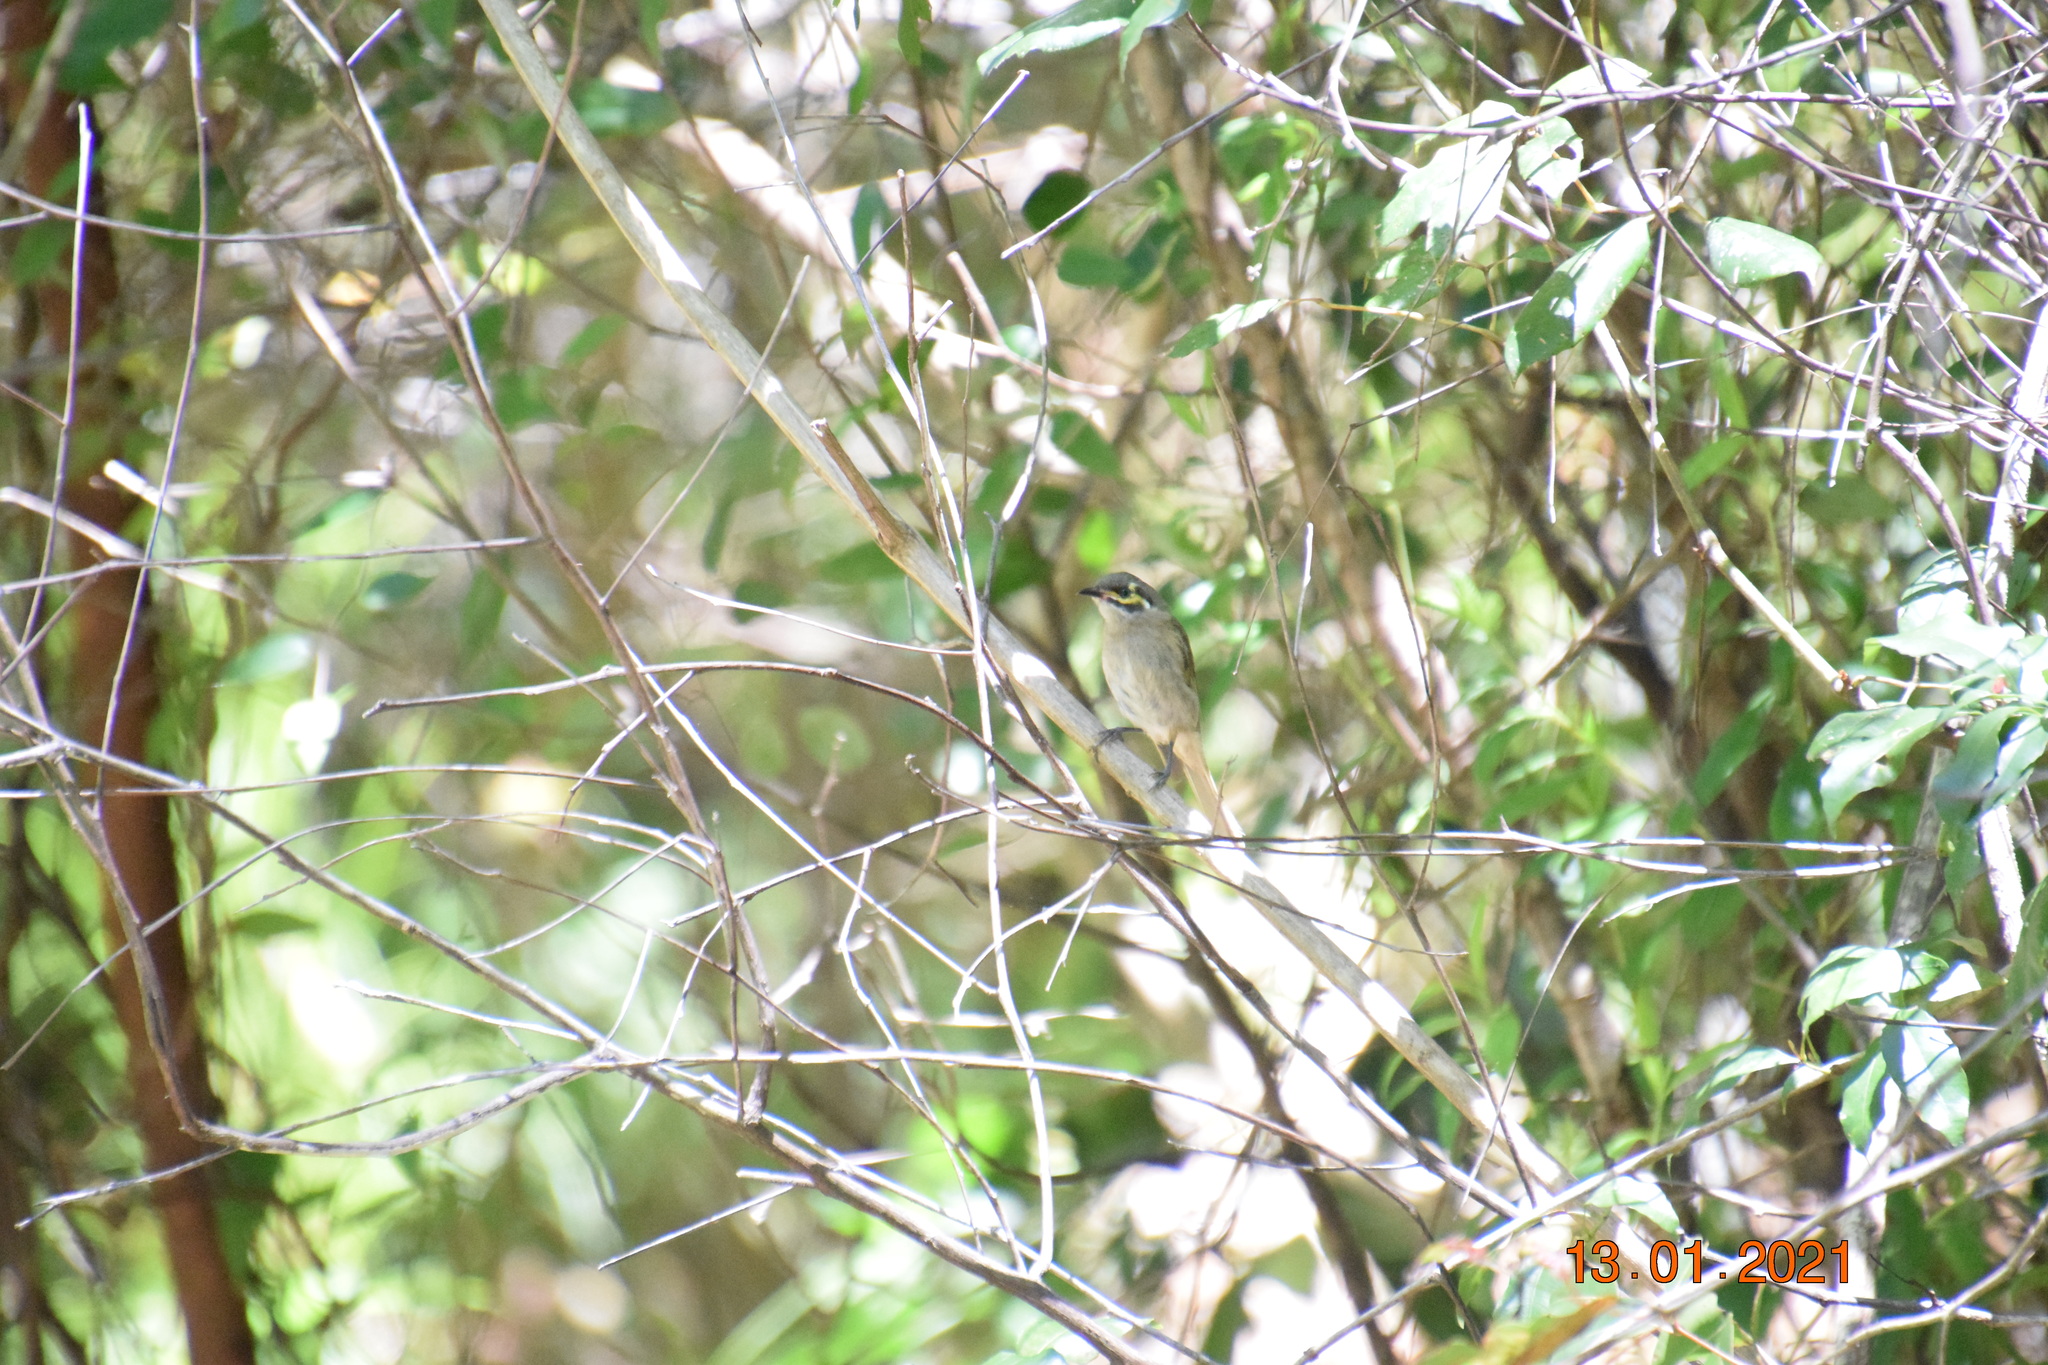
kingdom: Animalia
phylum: Chordata
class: Aves
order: Passeriformes
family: Meliphagidae
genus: Caligavis
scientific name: Caligavis chrysops
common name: Yellow-faced honeyeater
